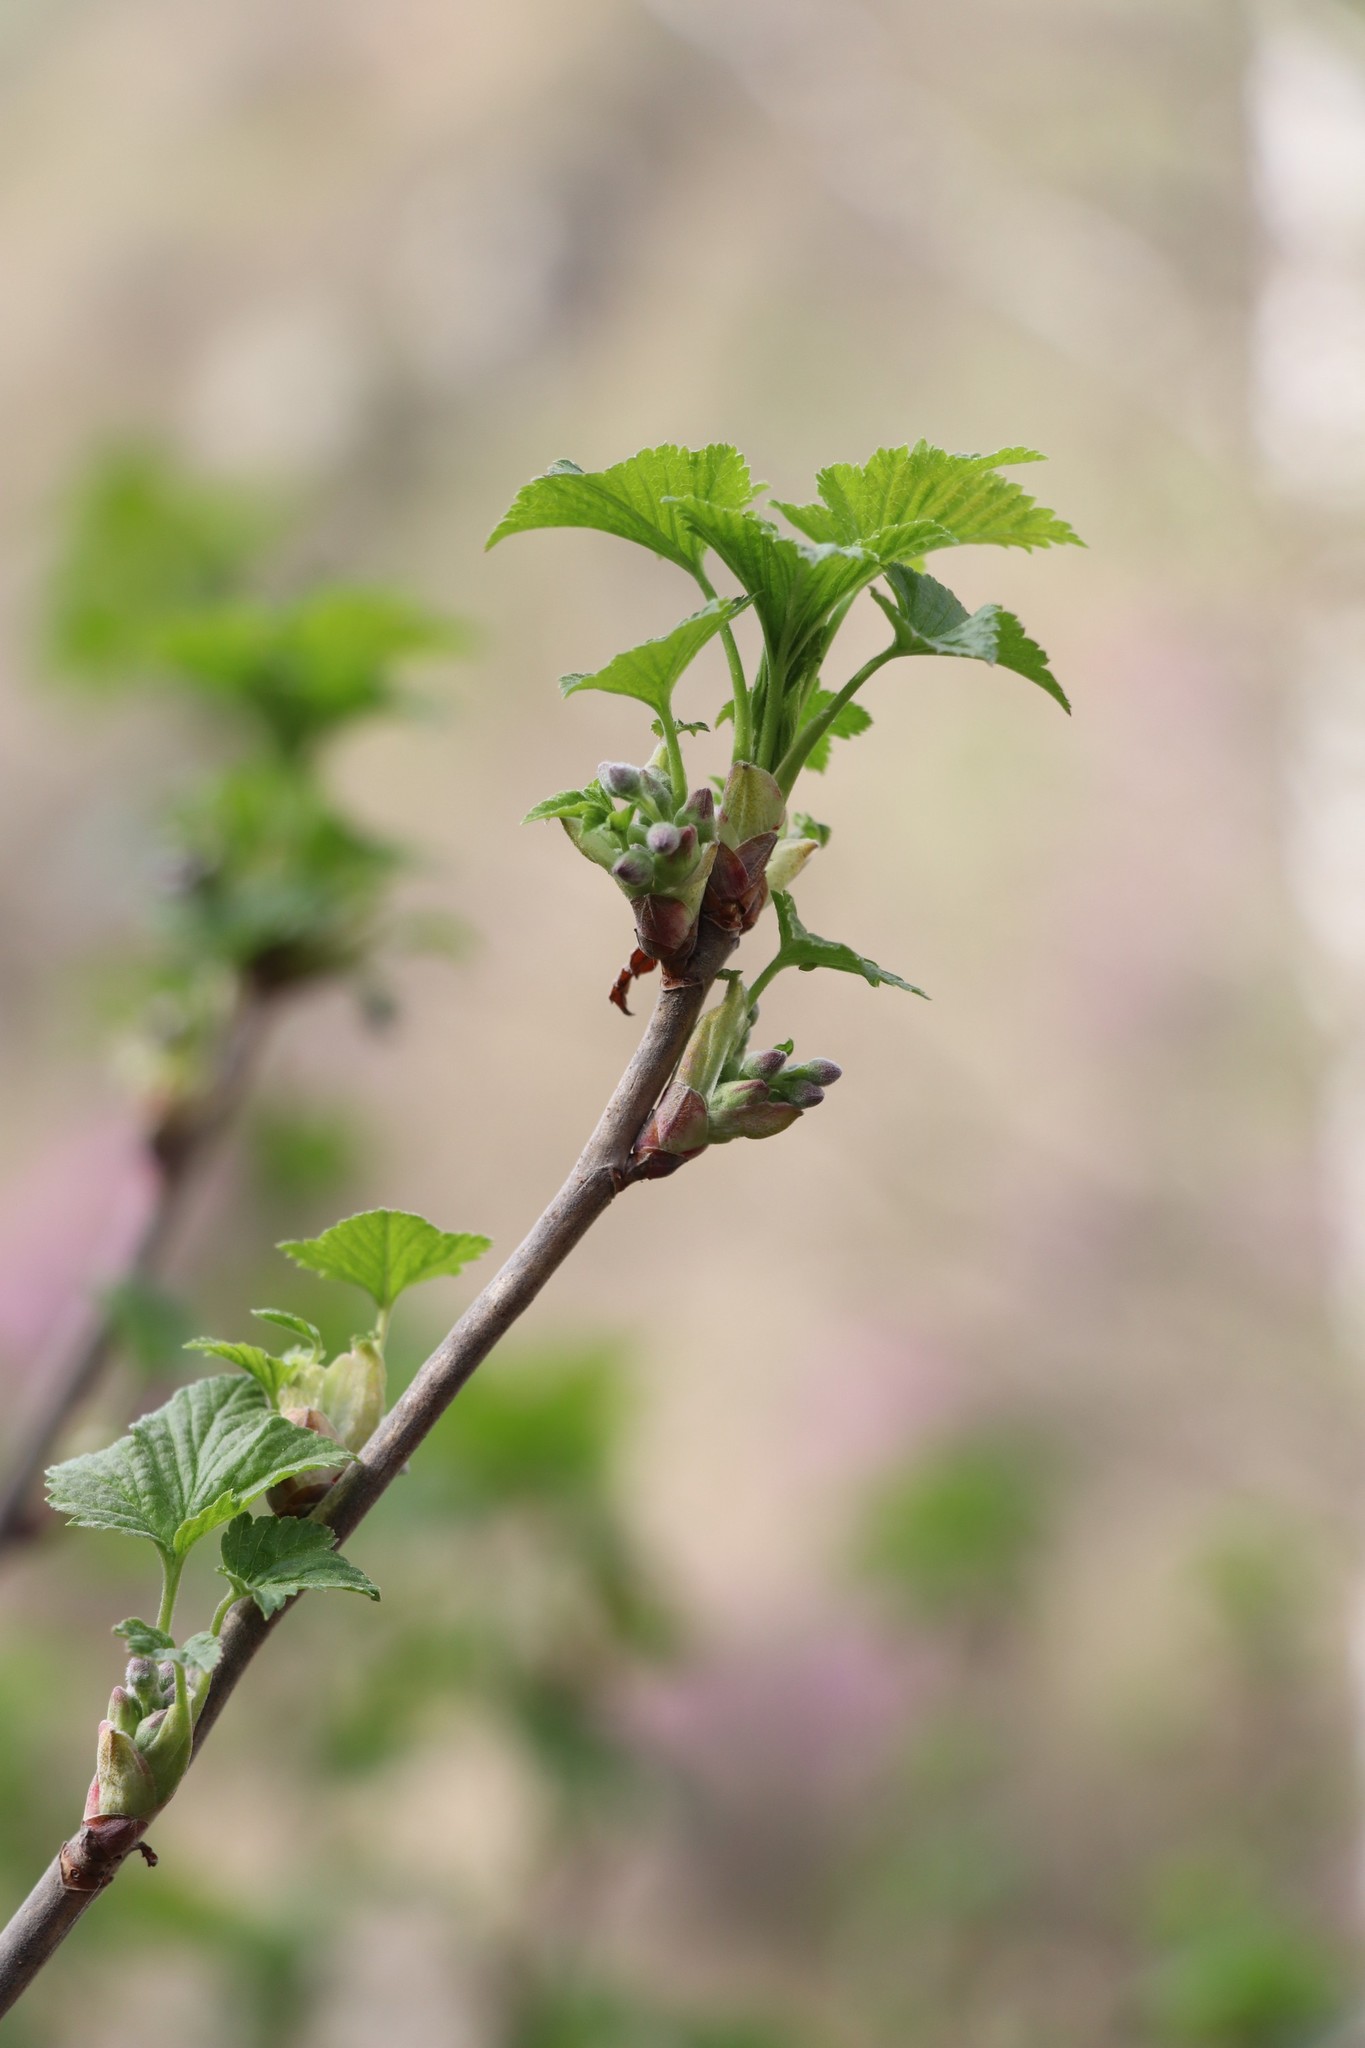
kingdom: Plantae
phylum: Tracheophyta
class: Magnoliopsida
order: Saxifragales
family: Grossulariaceae
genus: Ribes
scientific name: Ribes nigrum
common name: Black currant
